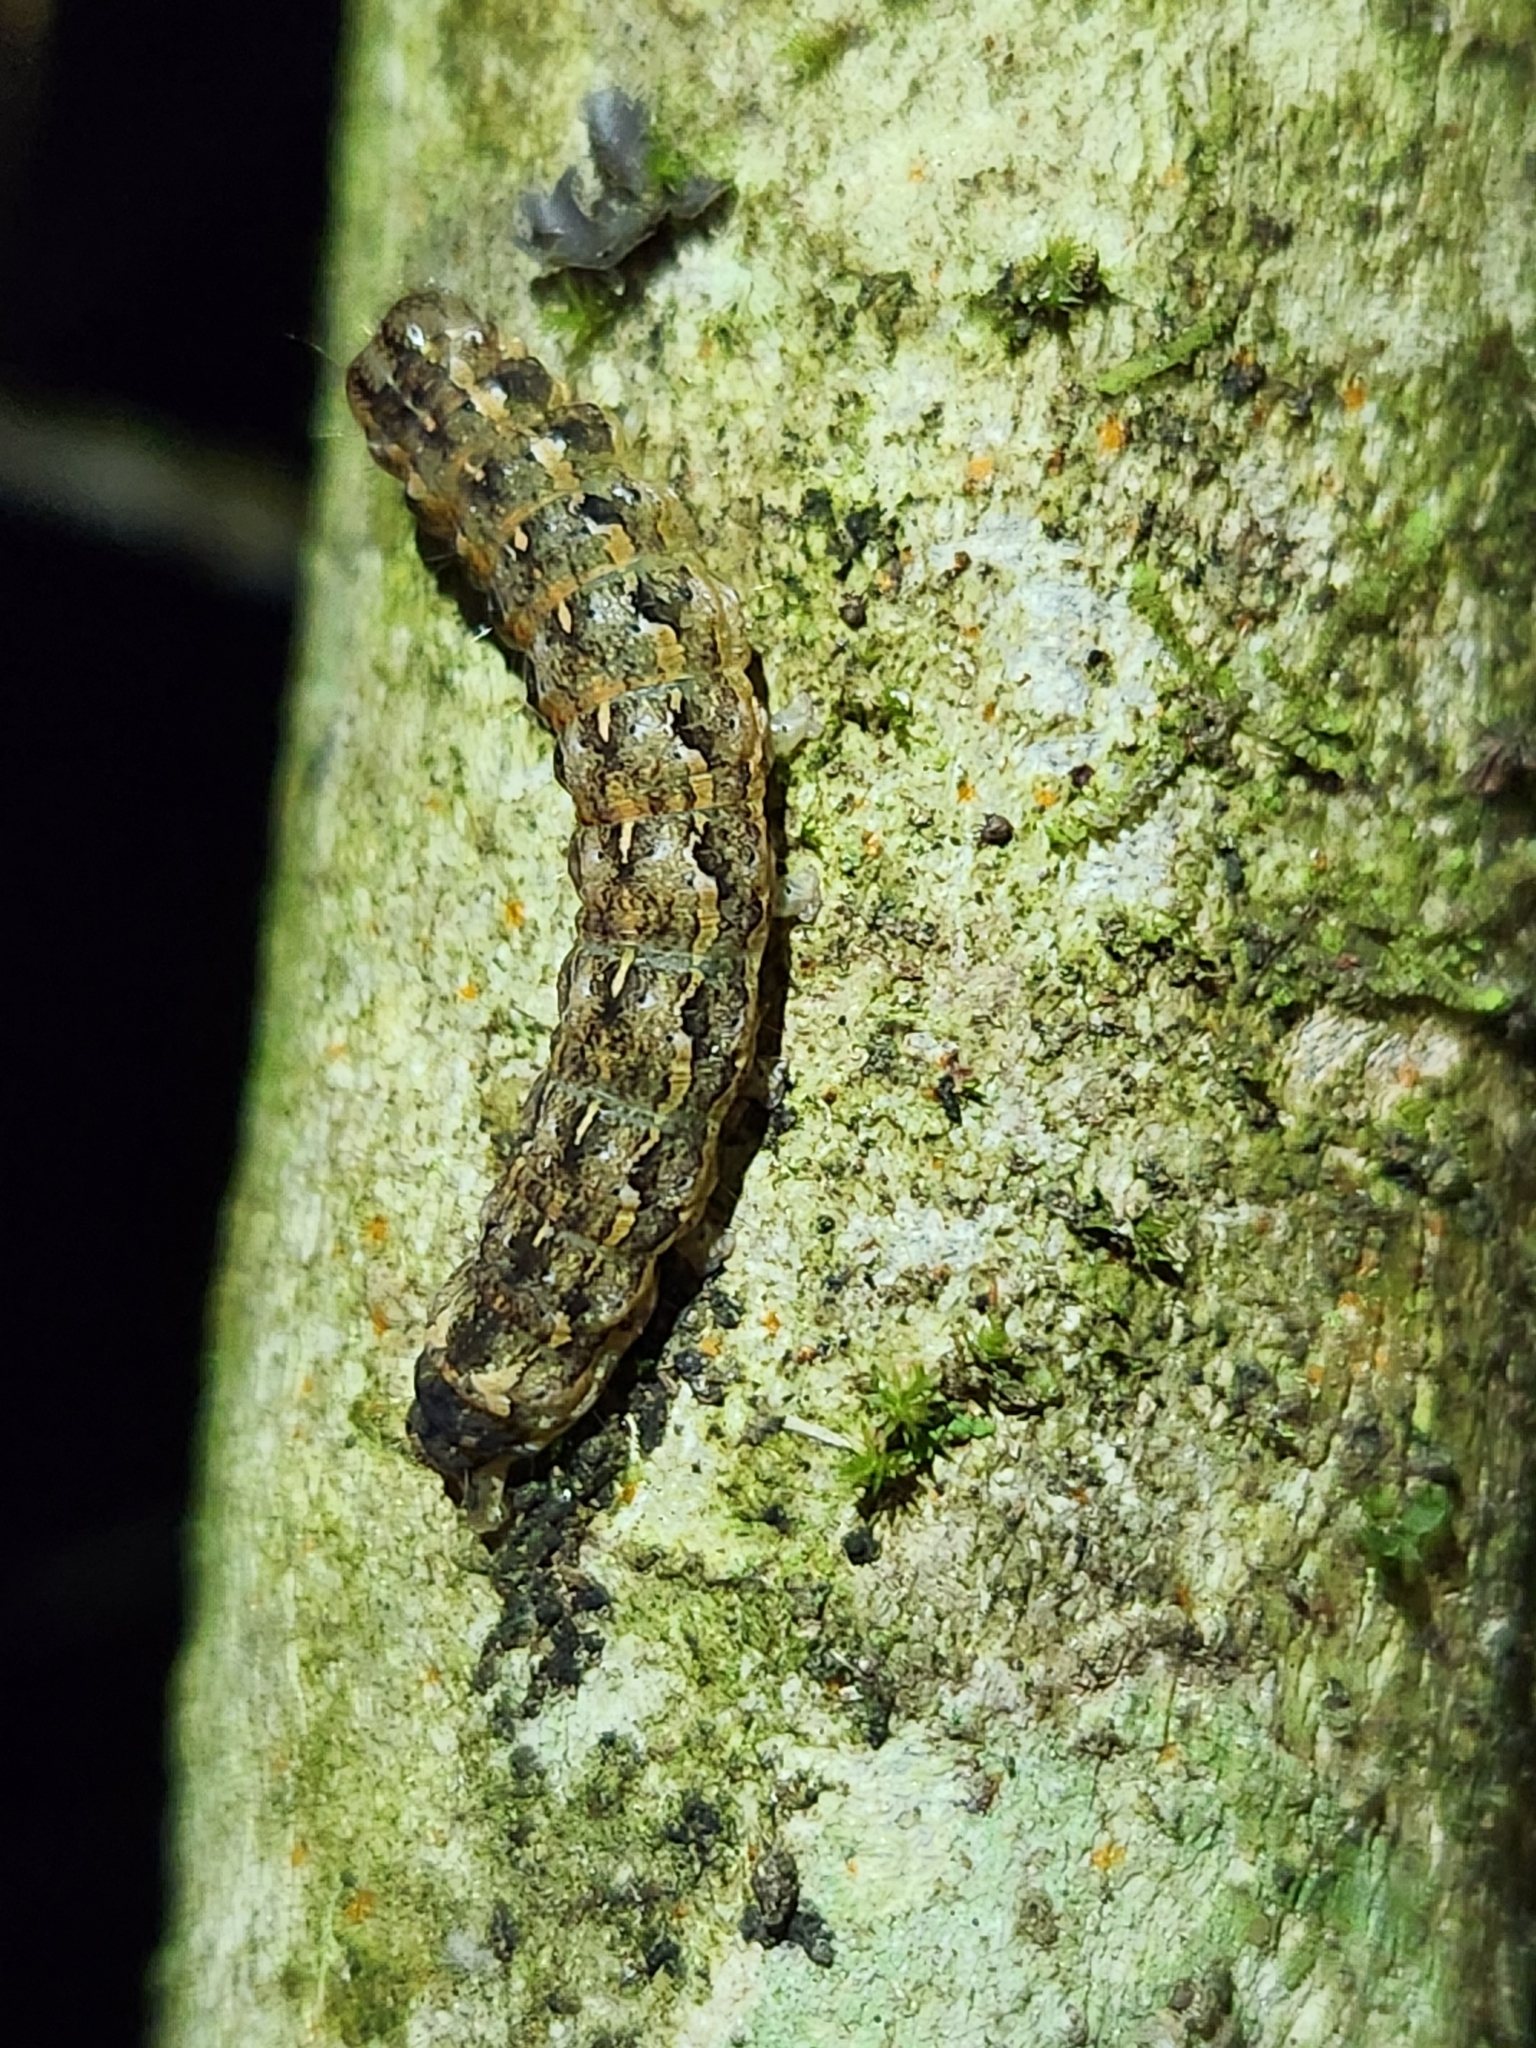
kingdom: Animalia
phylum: Arthropoda
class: Insecta
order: Lepidoptera
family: Noctuidae
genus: Feredayia
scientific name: Feredayia grammosa
